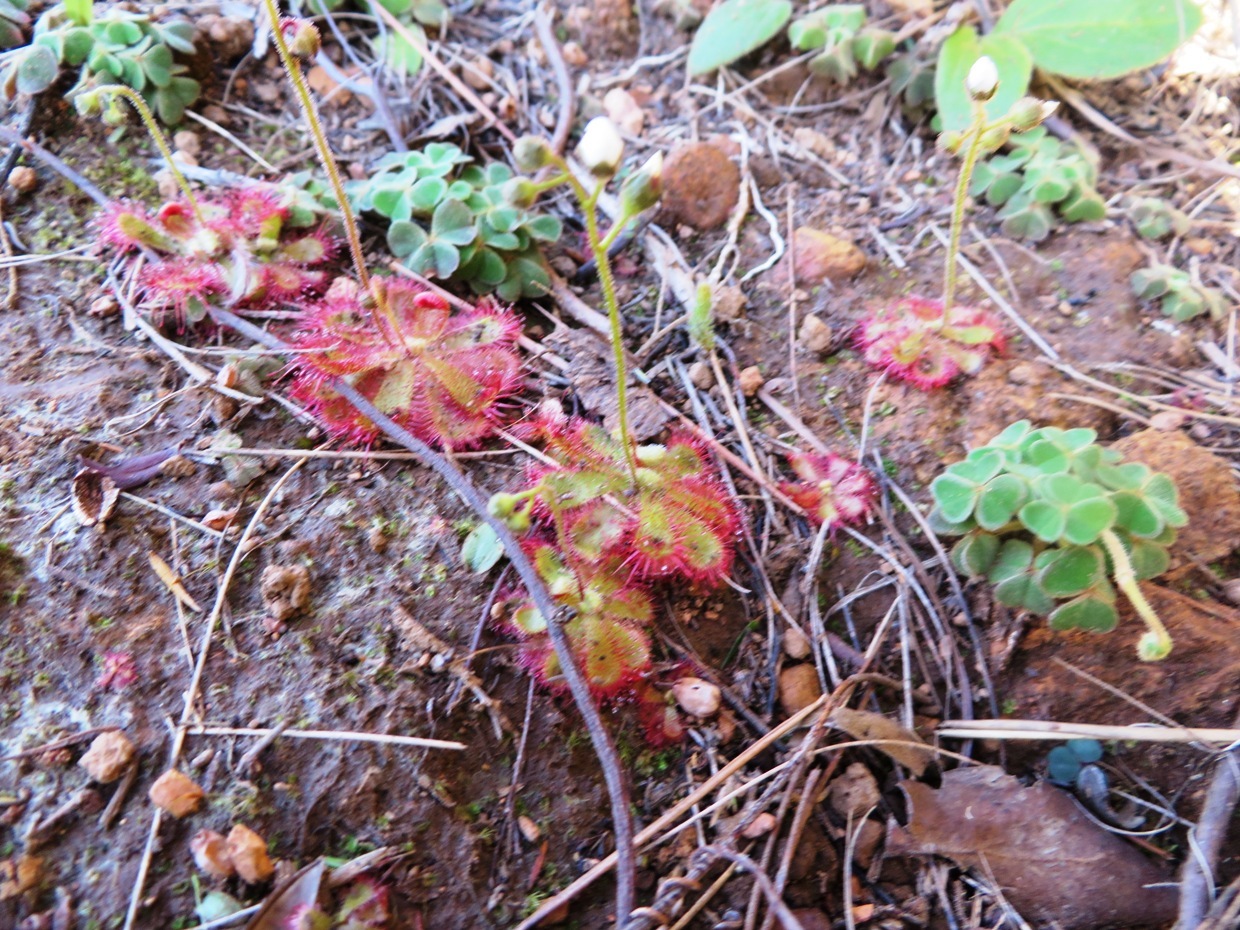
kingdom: Plantae
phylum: Tracheophyta
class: Magnoliopsida
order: Caryophyllales
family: Droseraceae
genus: Drosera
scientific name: Drosera trinervia
